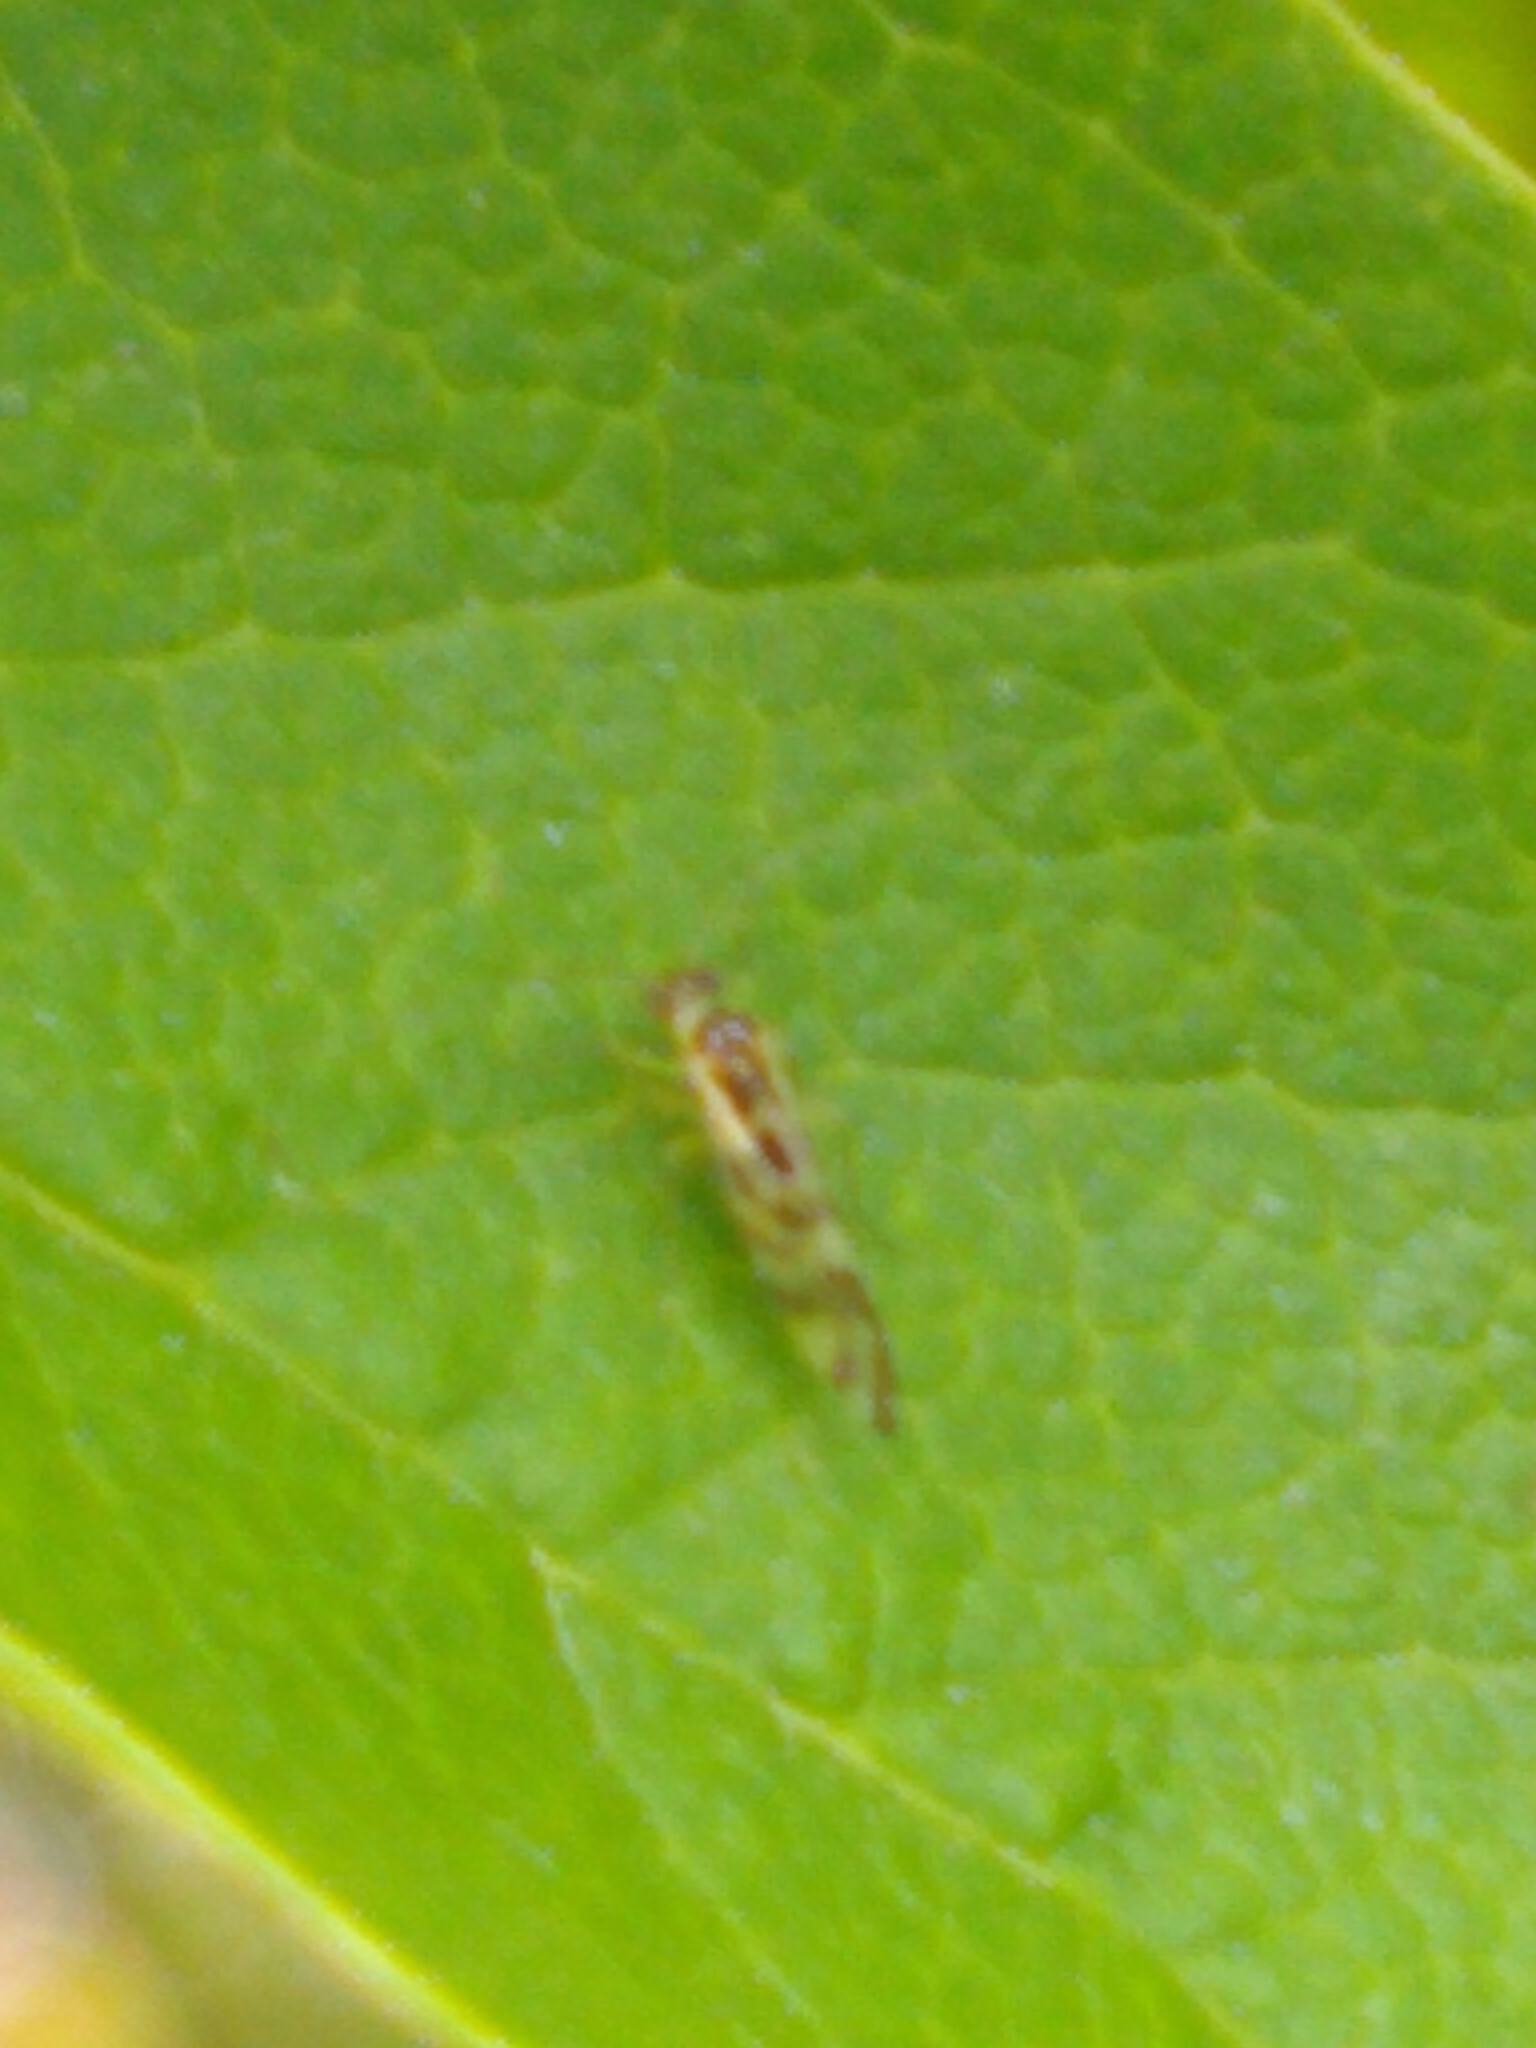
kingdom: Animalia
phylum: Arthropoda
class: Insecta
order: Psocodea
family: Stenopsocidae
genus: Graphopsocus
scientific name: Graphopsocus cruciatus
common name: Lizard bark louse
